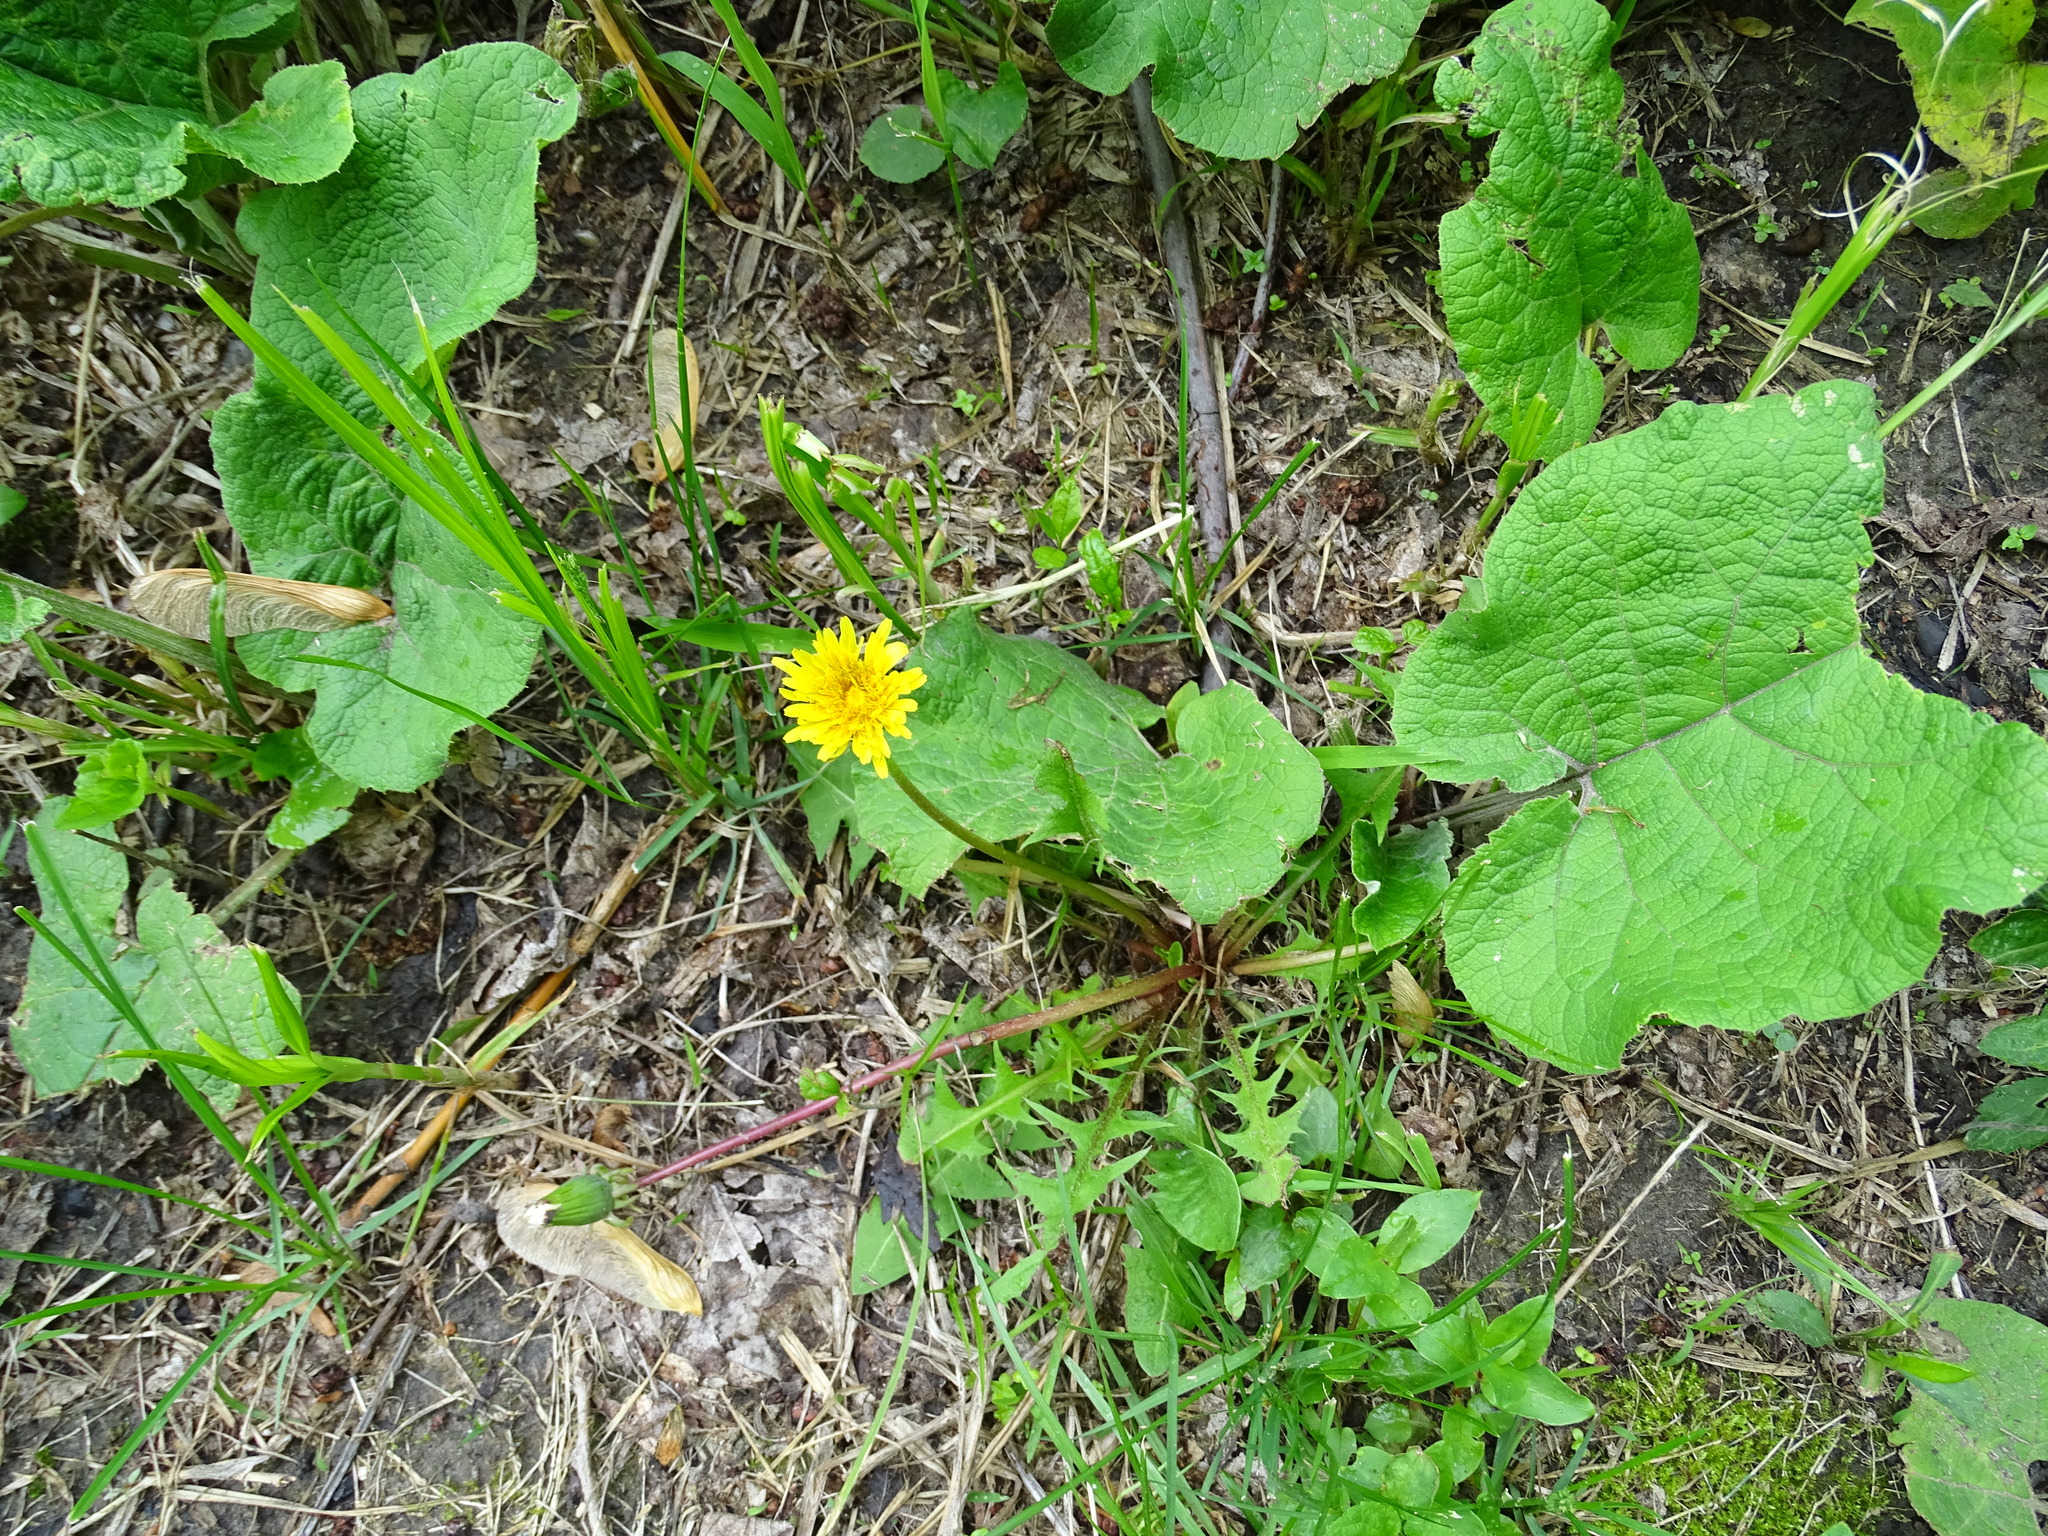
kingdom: Plantae
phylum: Tracheophyta
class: Magnoliopsida
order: Asterales
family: Asteraceae
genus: Taraxacum
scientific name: Taraxacum officinale
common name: Common dandelion
